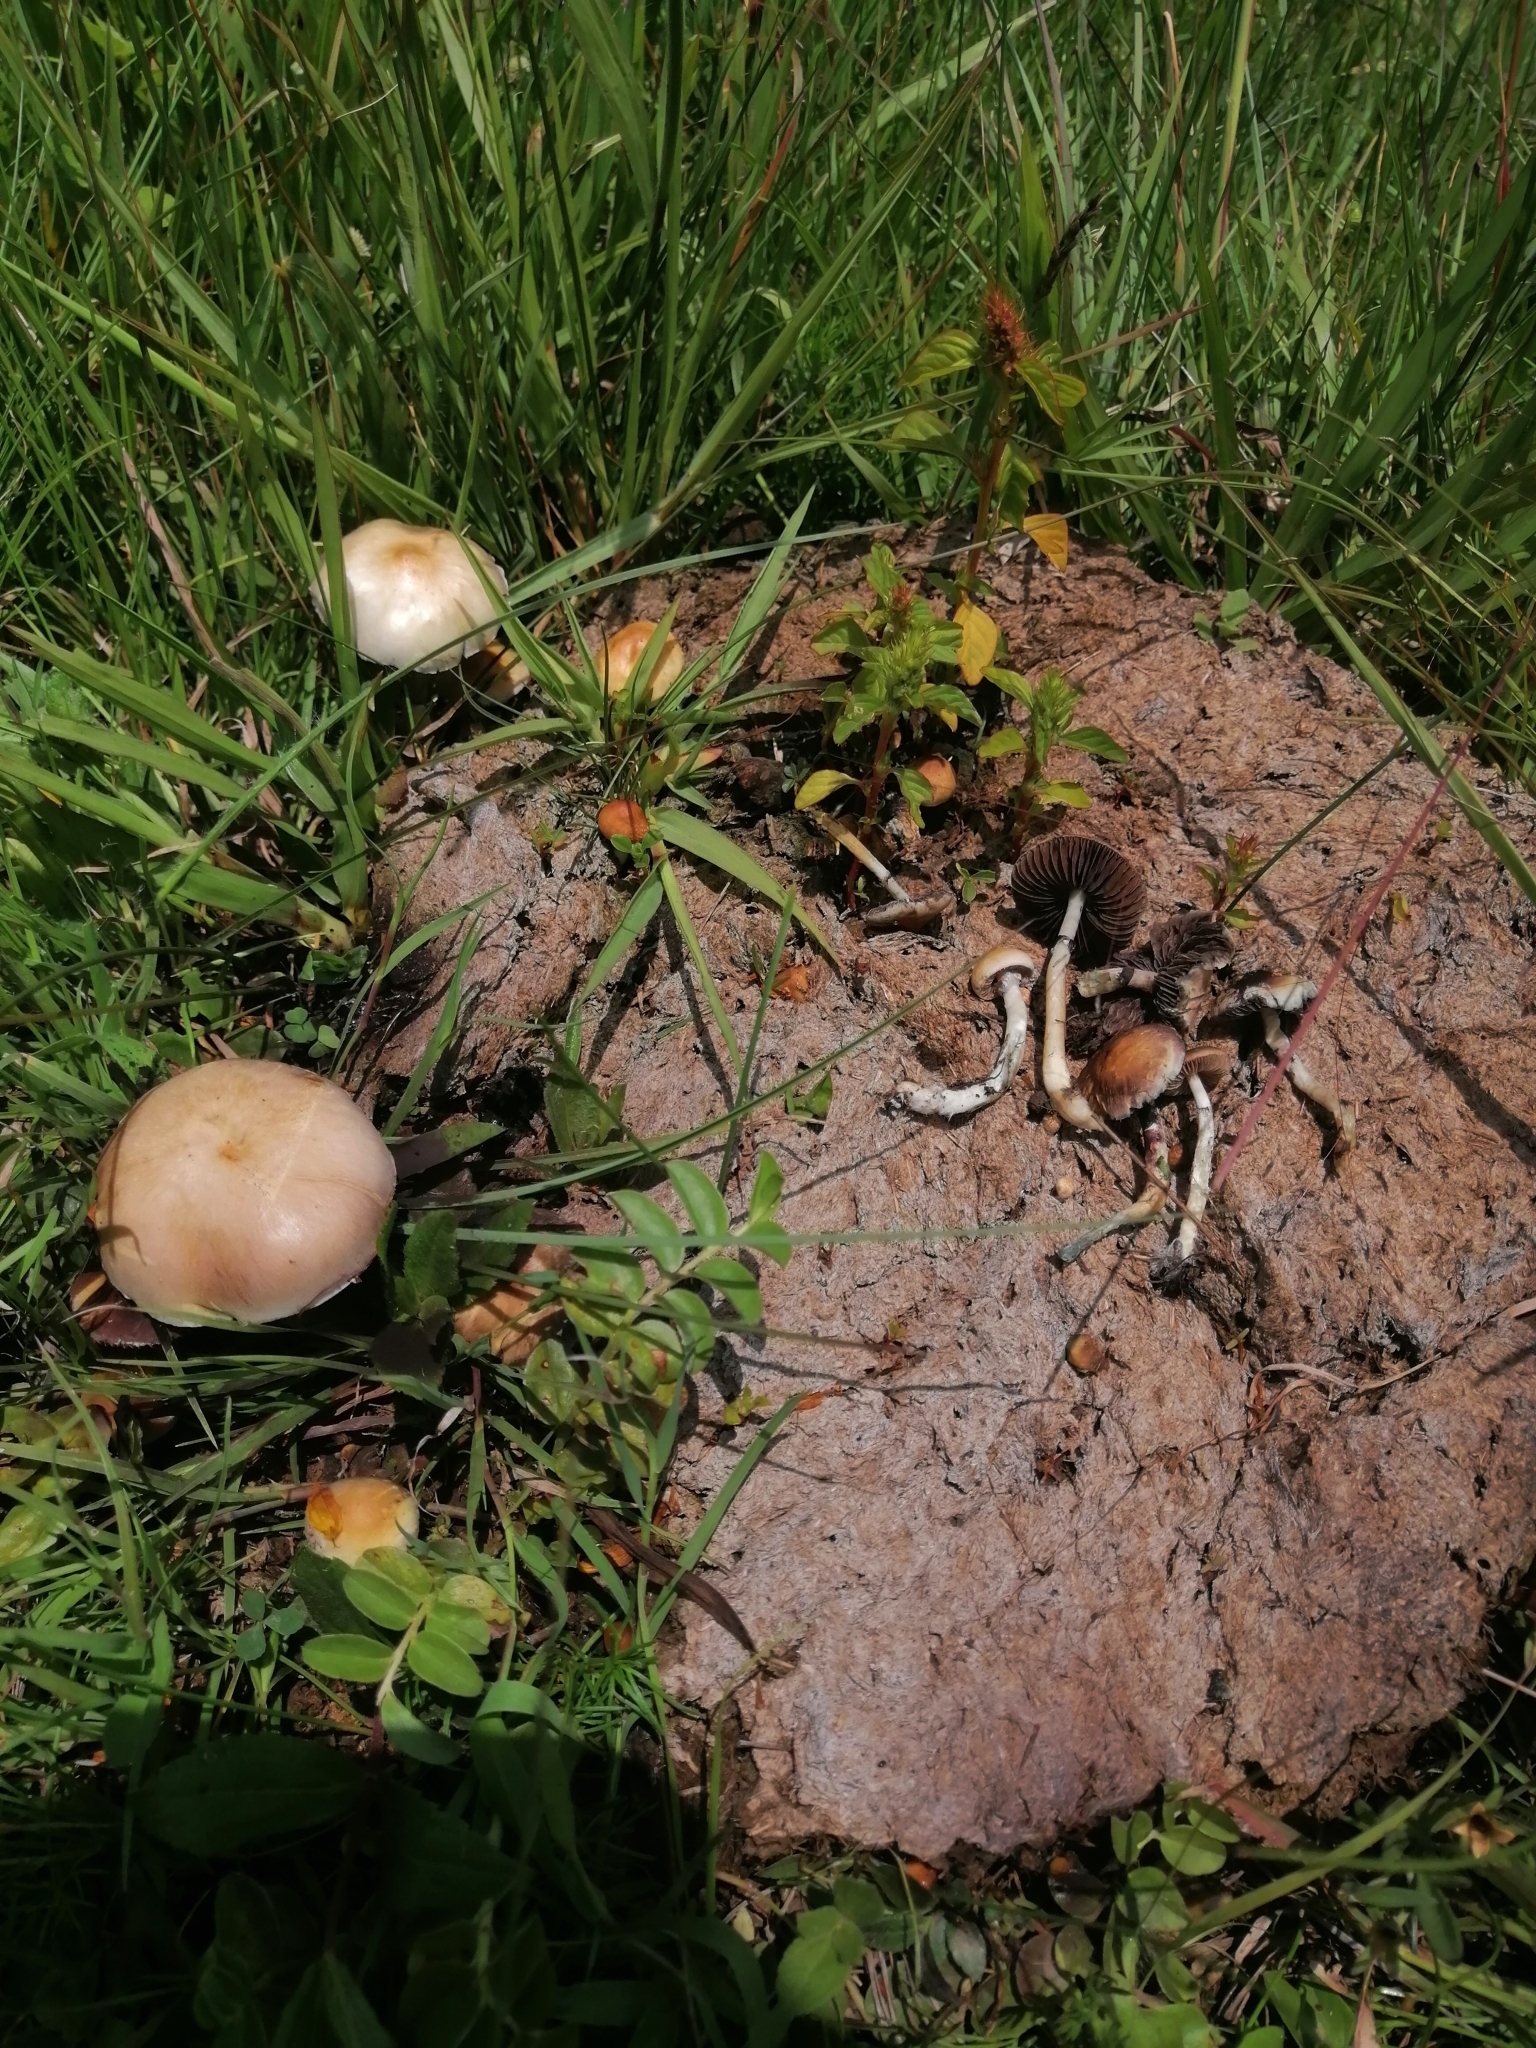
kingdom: Fungi
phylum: Basidiomycota
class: Agaricomycetes
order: Agaricales
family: Hymenogastraceae
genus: Psilocybe
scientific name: Psilocybe cubensis
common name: Golden brownie
